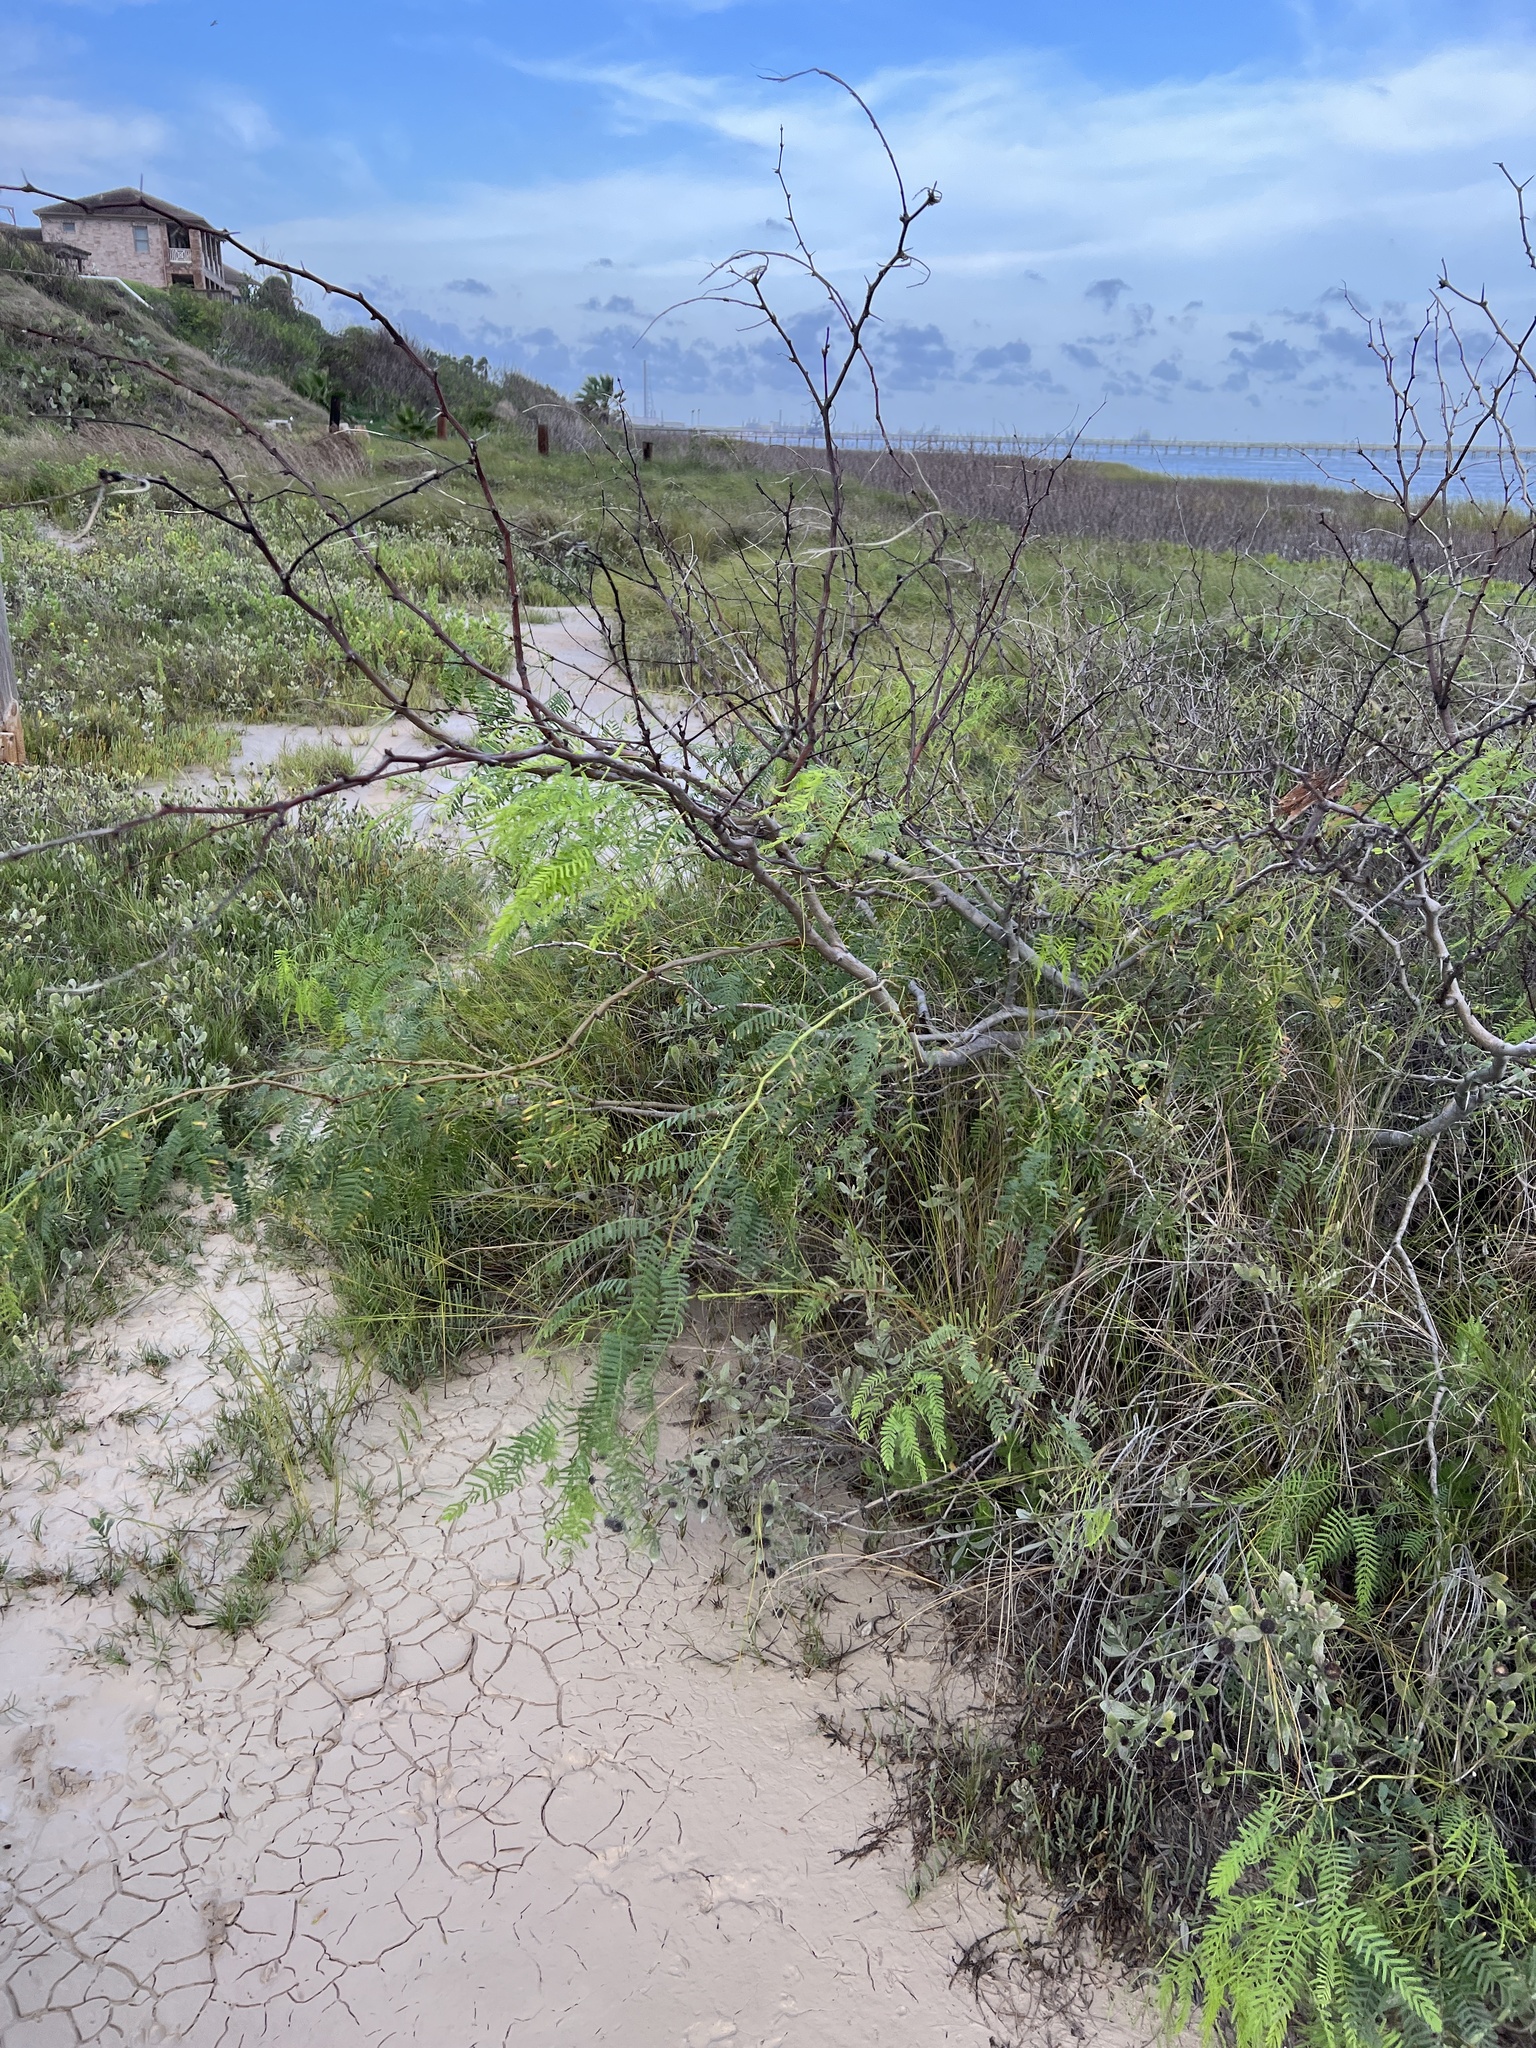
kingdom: Plantae
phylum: Tracheophyta
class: Magnoliopsida
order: Fabales
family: Fabaceae
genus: Prosopis
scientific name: Prosopis glandulosa
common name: Honey mesquite
